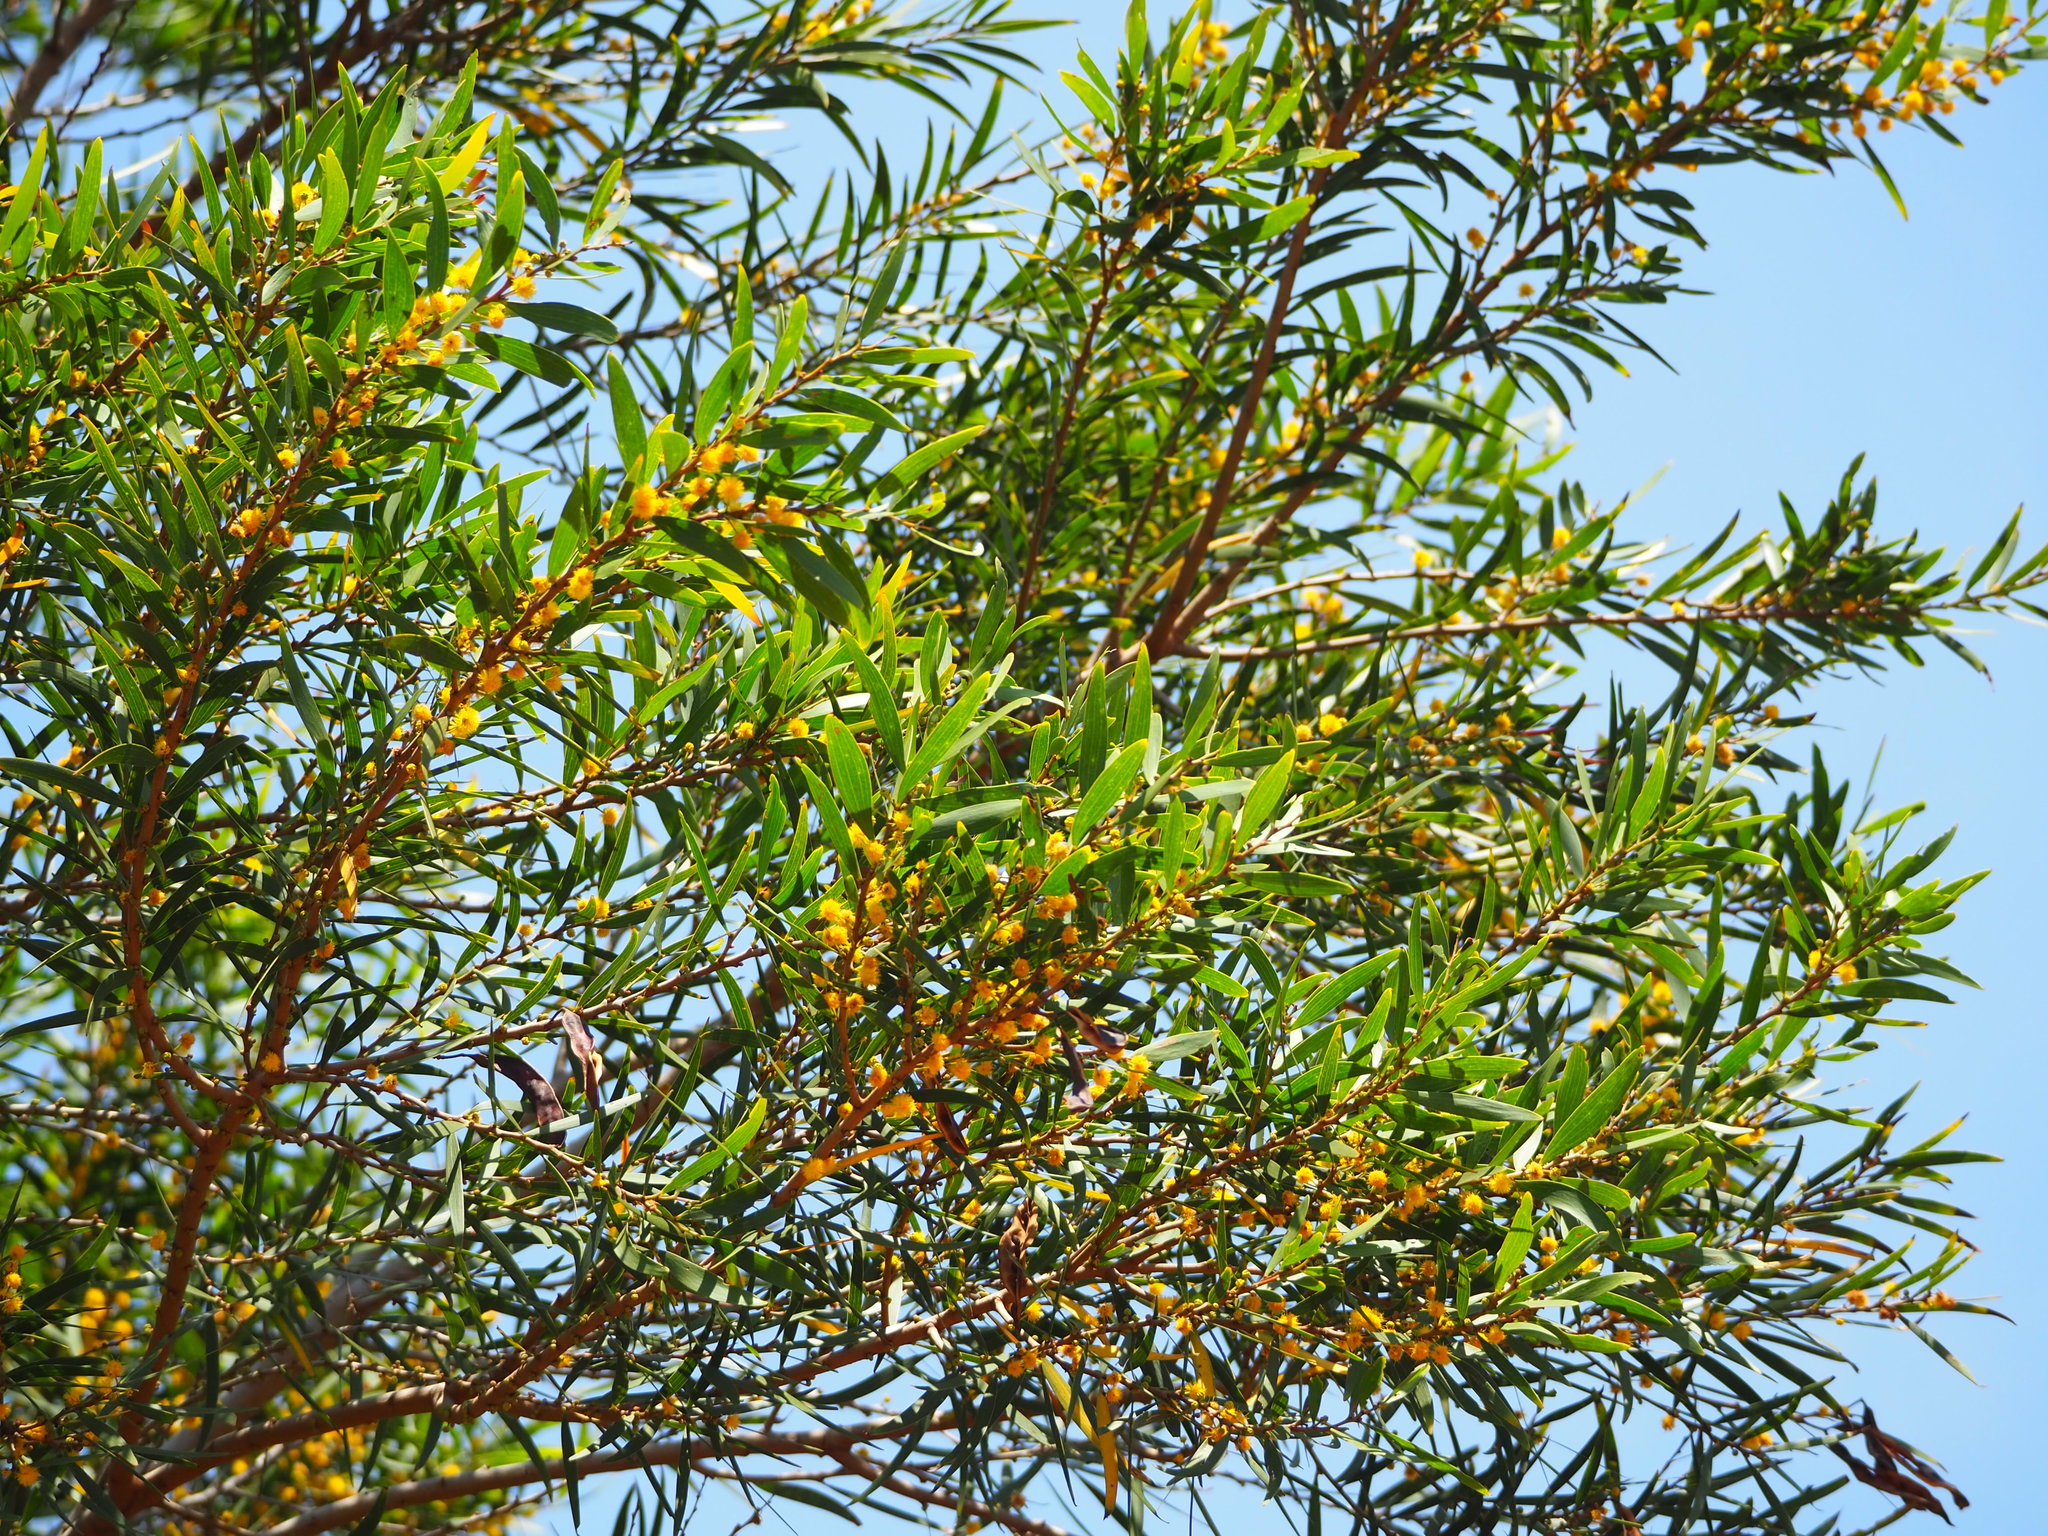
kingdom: Plantae
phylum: Tracheophyta
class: Magnoliopsida
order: Fabales
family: Fabaceae
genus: Acacia
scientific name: Acacia confusa
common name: Formosan koa
